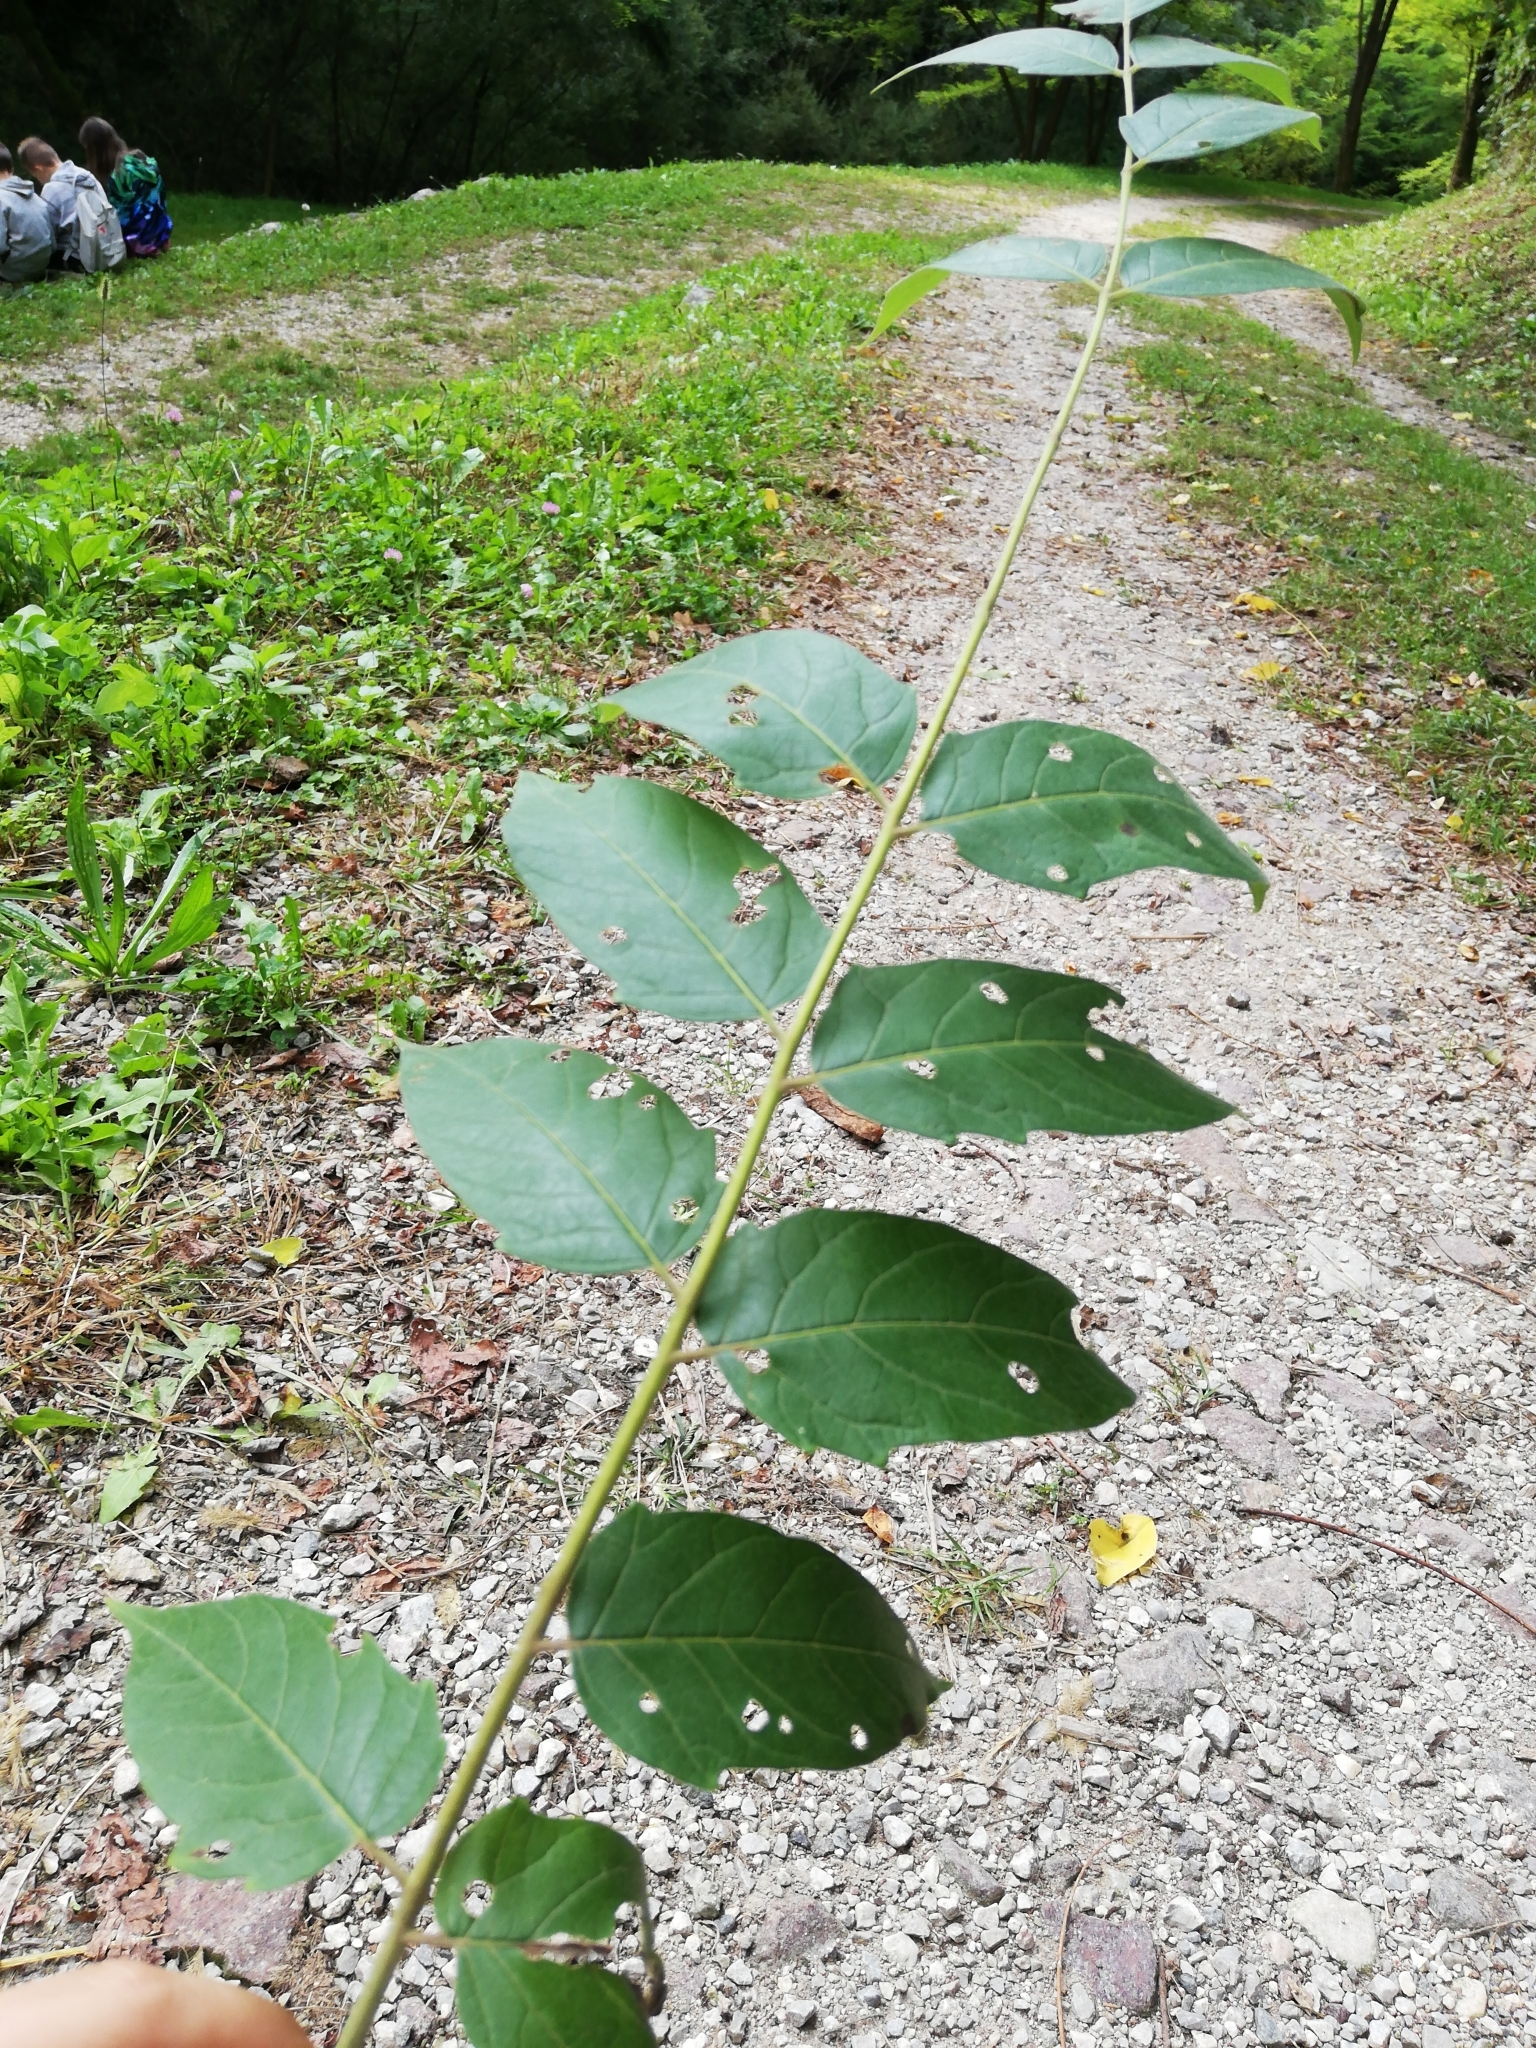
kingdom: Plantae
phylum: Tracheophyta
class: Magnoliopsida
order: Sapindales
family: Simaroubaceae
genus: Ailanthus
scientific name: Ailanthus altissima
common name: Tree-of-heaven
